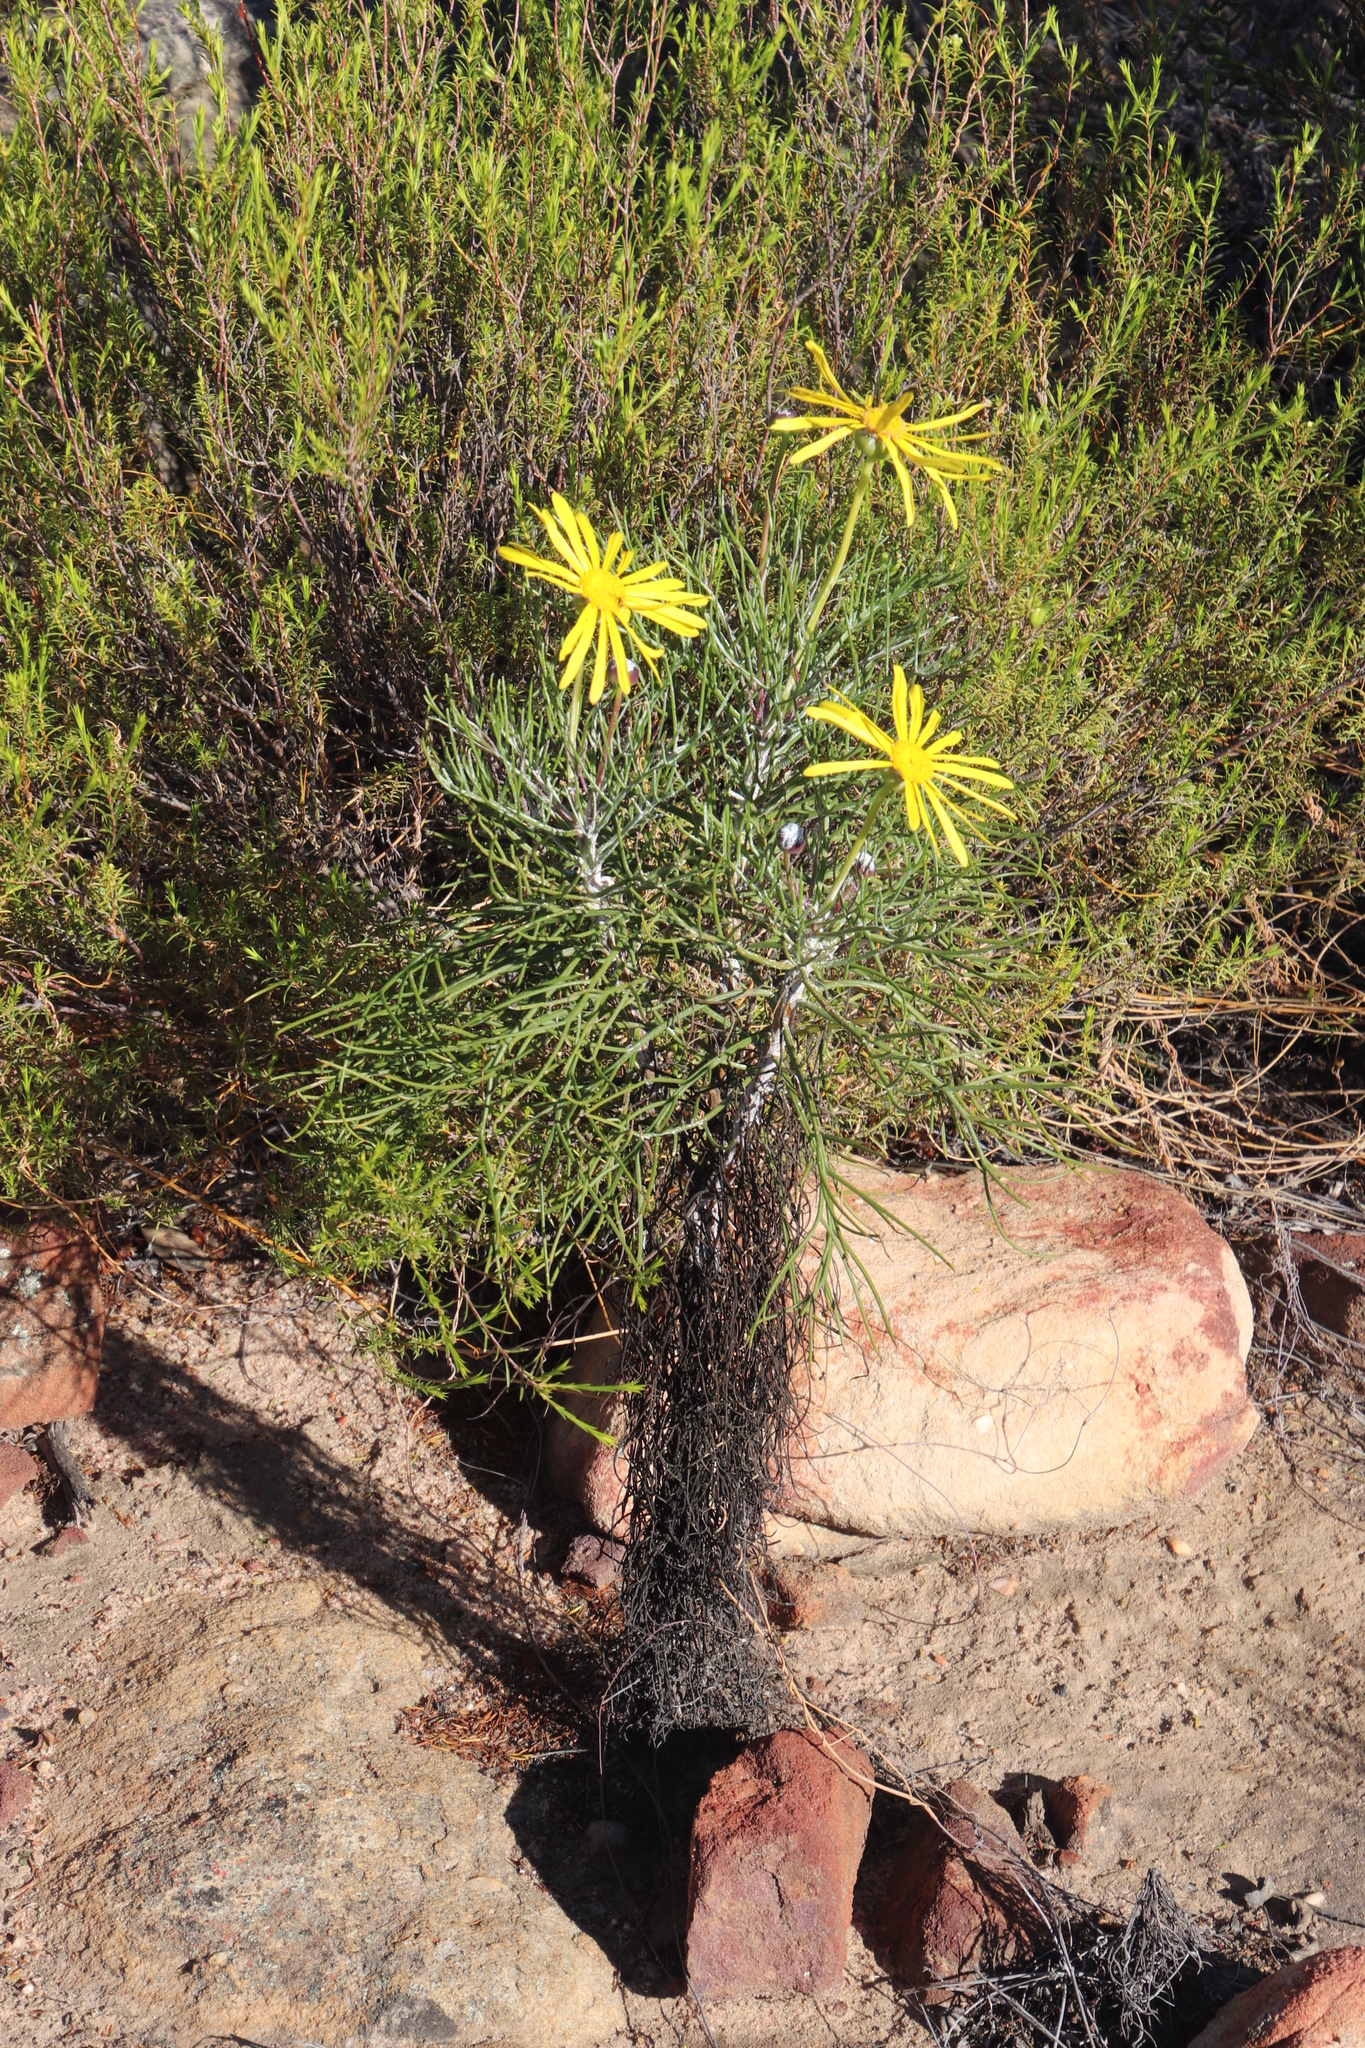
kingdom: Plantae
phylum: Tracheophyta
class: Magnoliopsida
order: Asterales
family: Asteraceae
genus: Euryops
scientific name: Euryops speciosissimus
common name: Clanwilliam daisy
